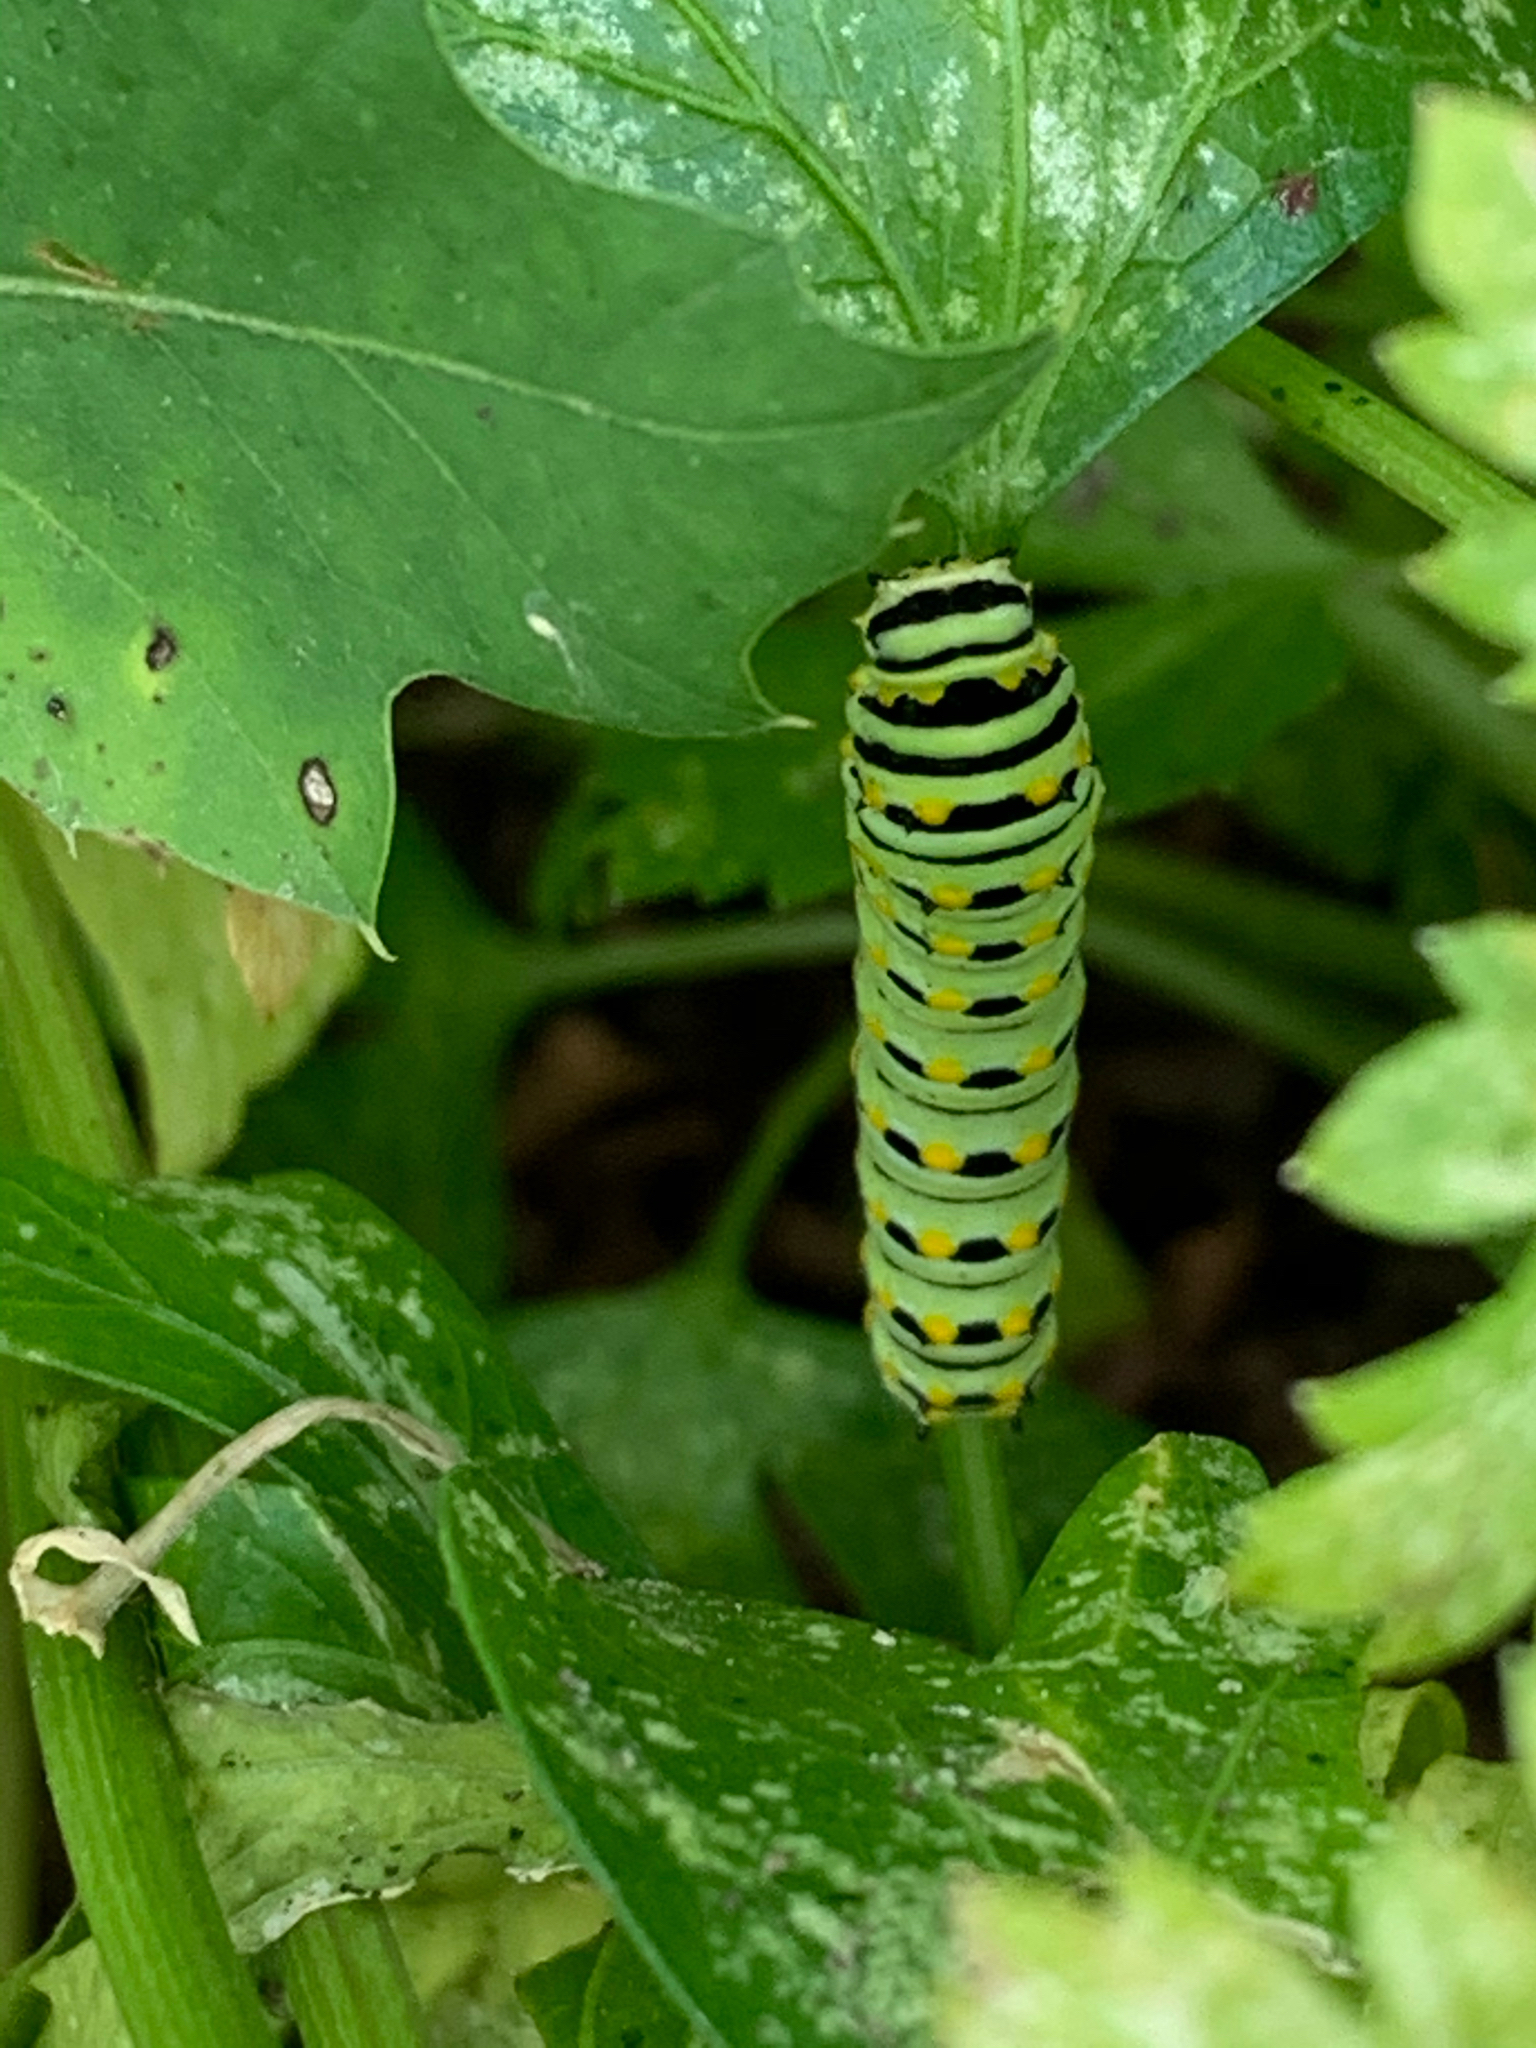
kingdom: Animalia
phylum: Arthropoda
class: Insecta
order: Lepidoptera
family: Papilionidae
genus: Papilio
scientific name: Papilio polyxenes
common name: Black swallowtail
